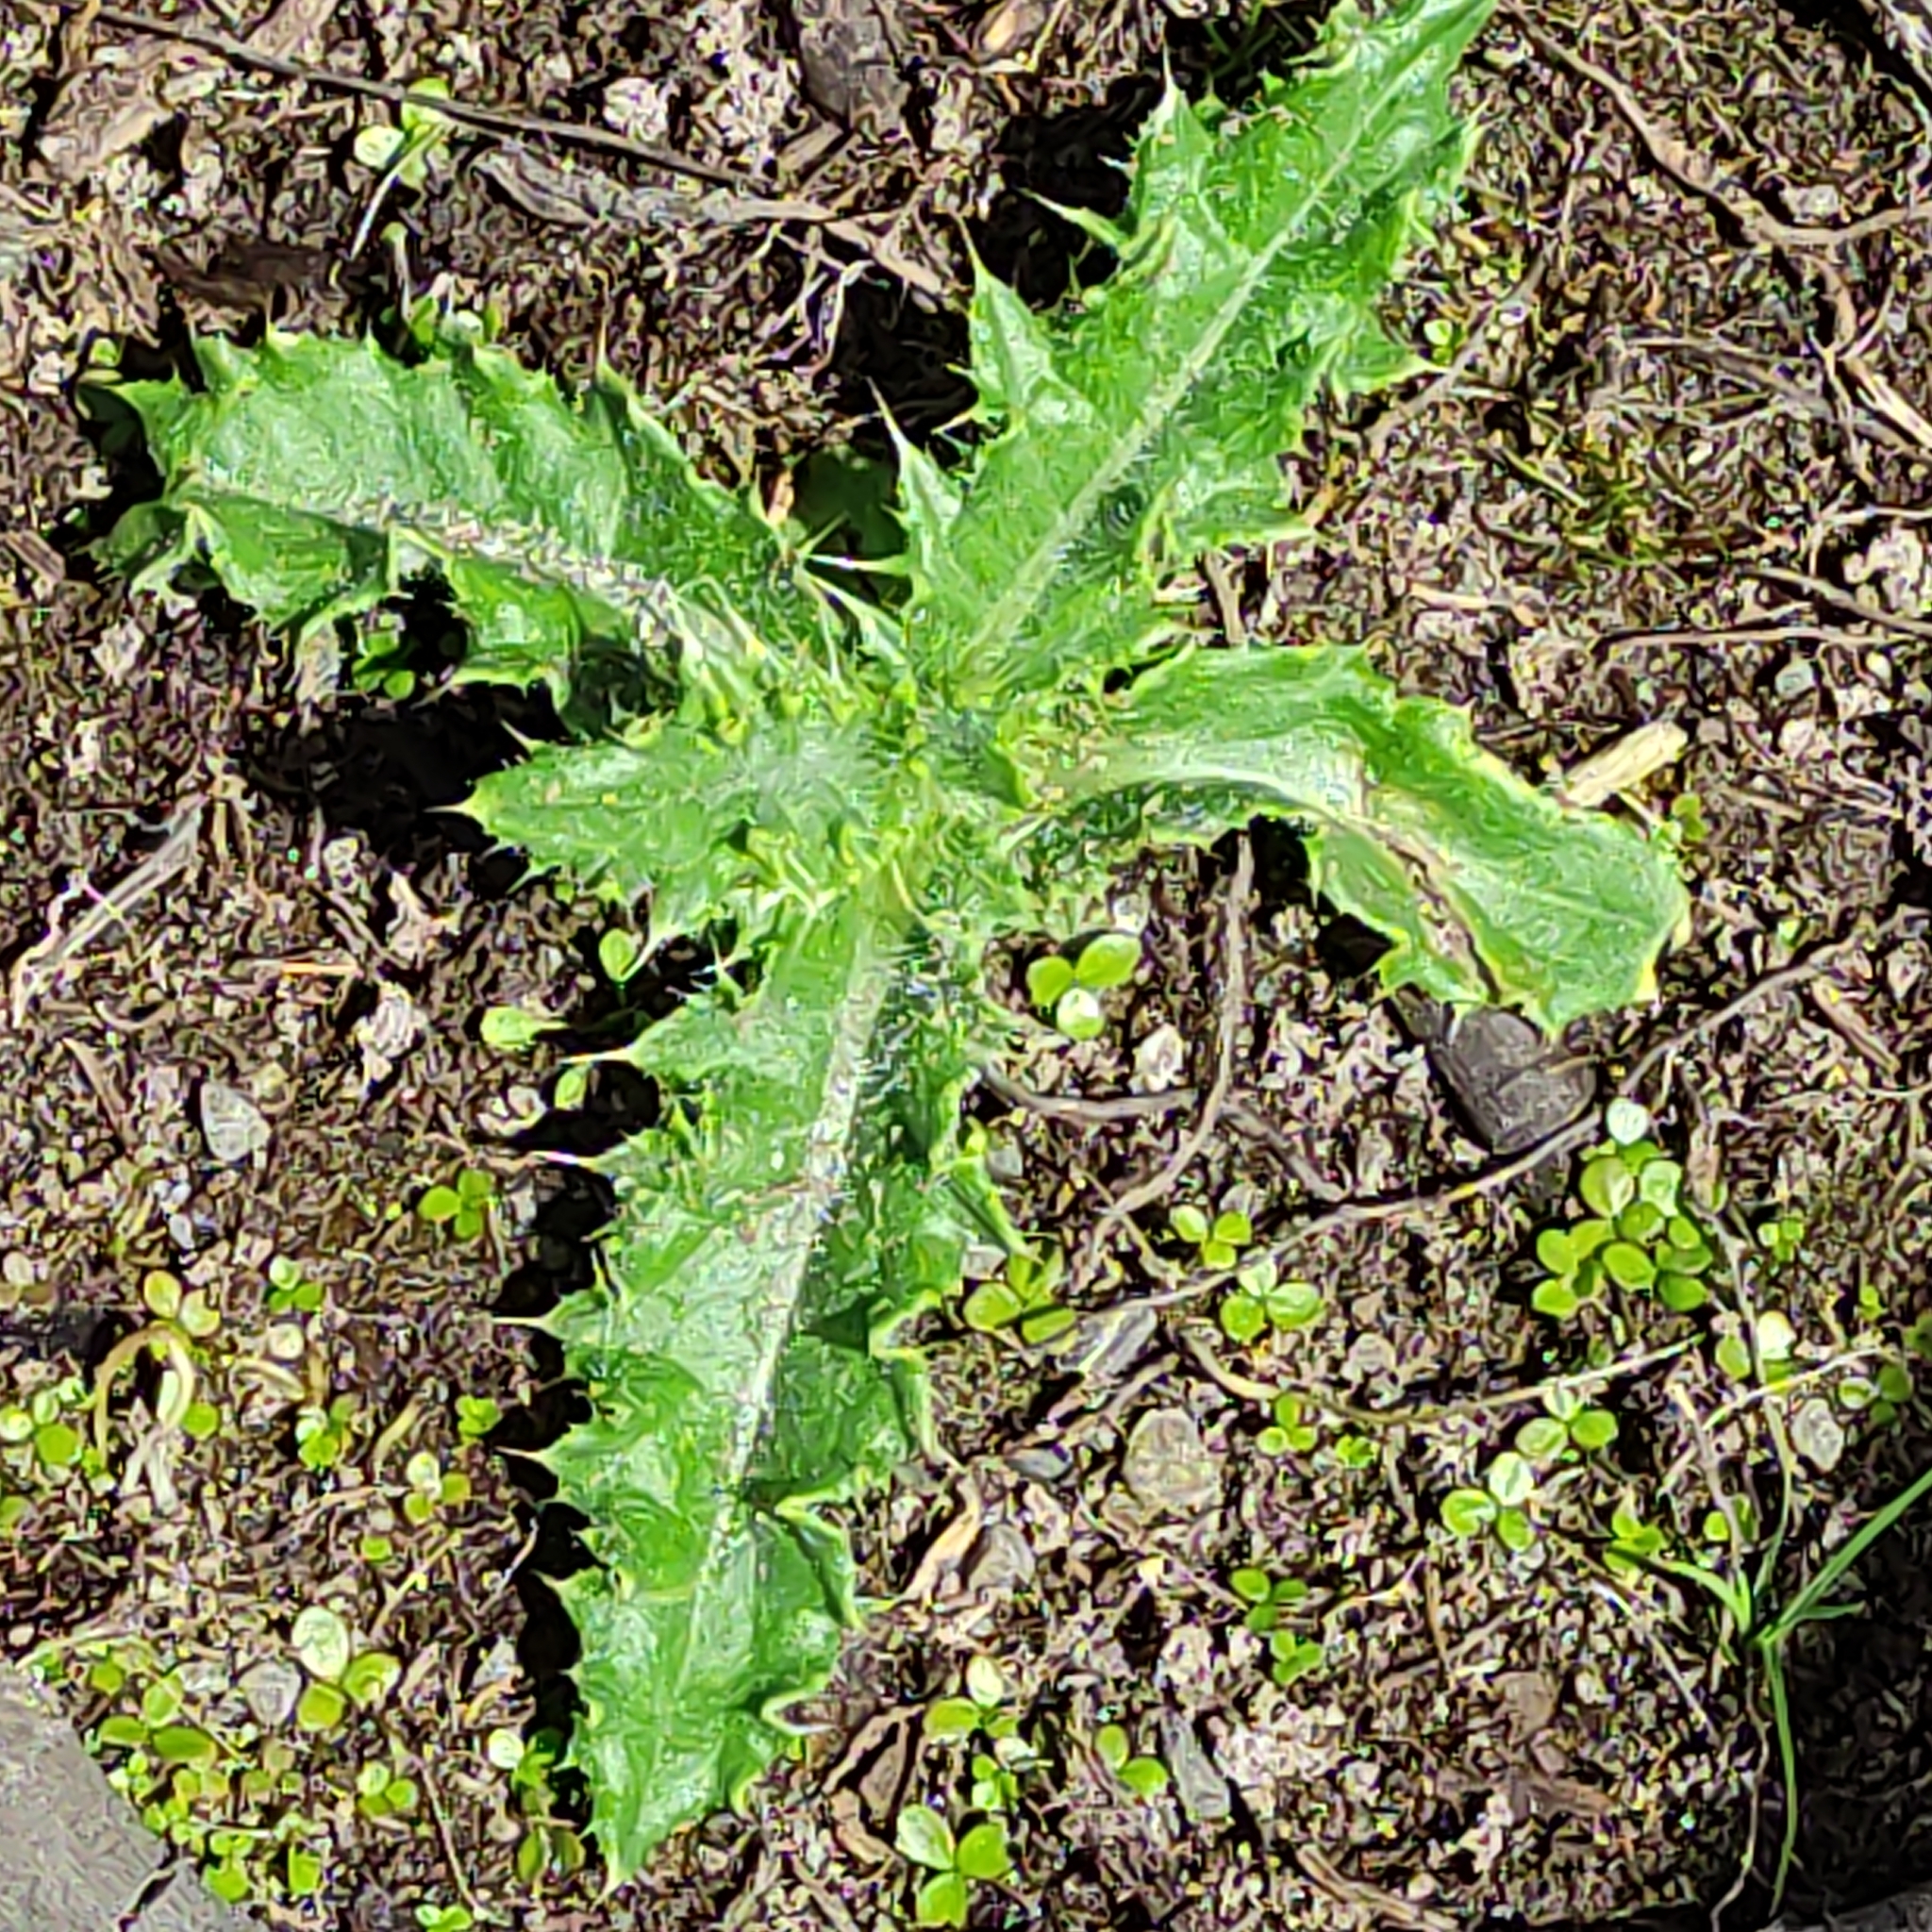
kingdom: Plantae
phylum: Tracheophyta
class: Magnoliopsida
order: Asterales
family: Asteraceae
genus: Cirsium
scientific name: Cirsium arvense
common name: Creeping thistle
